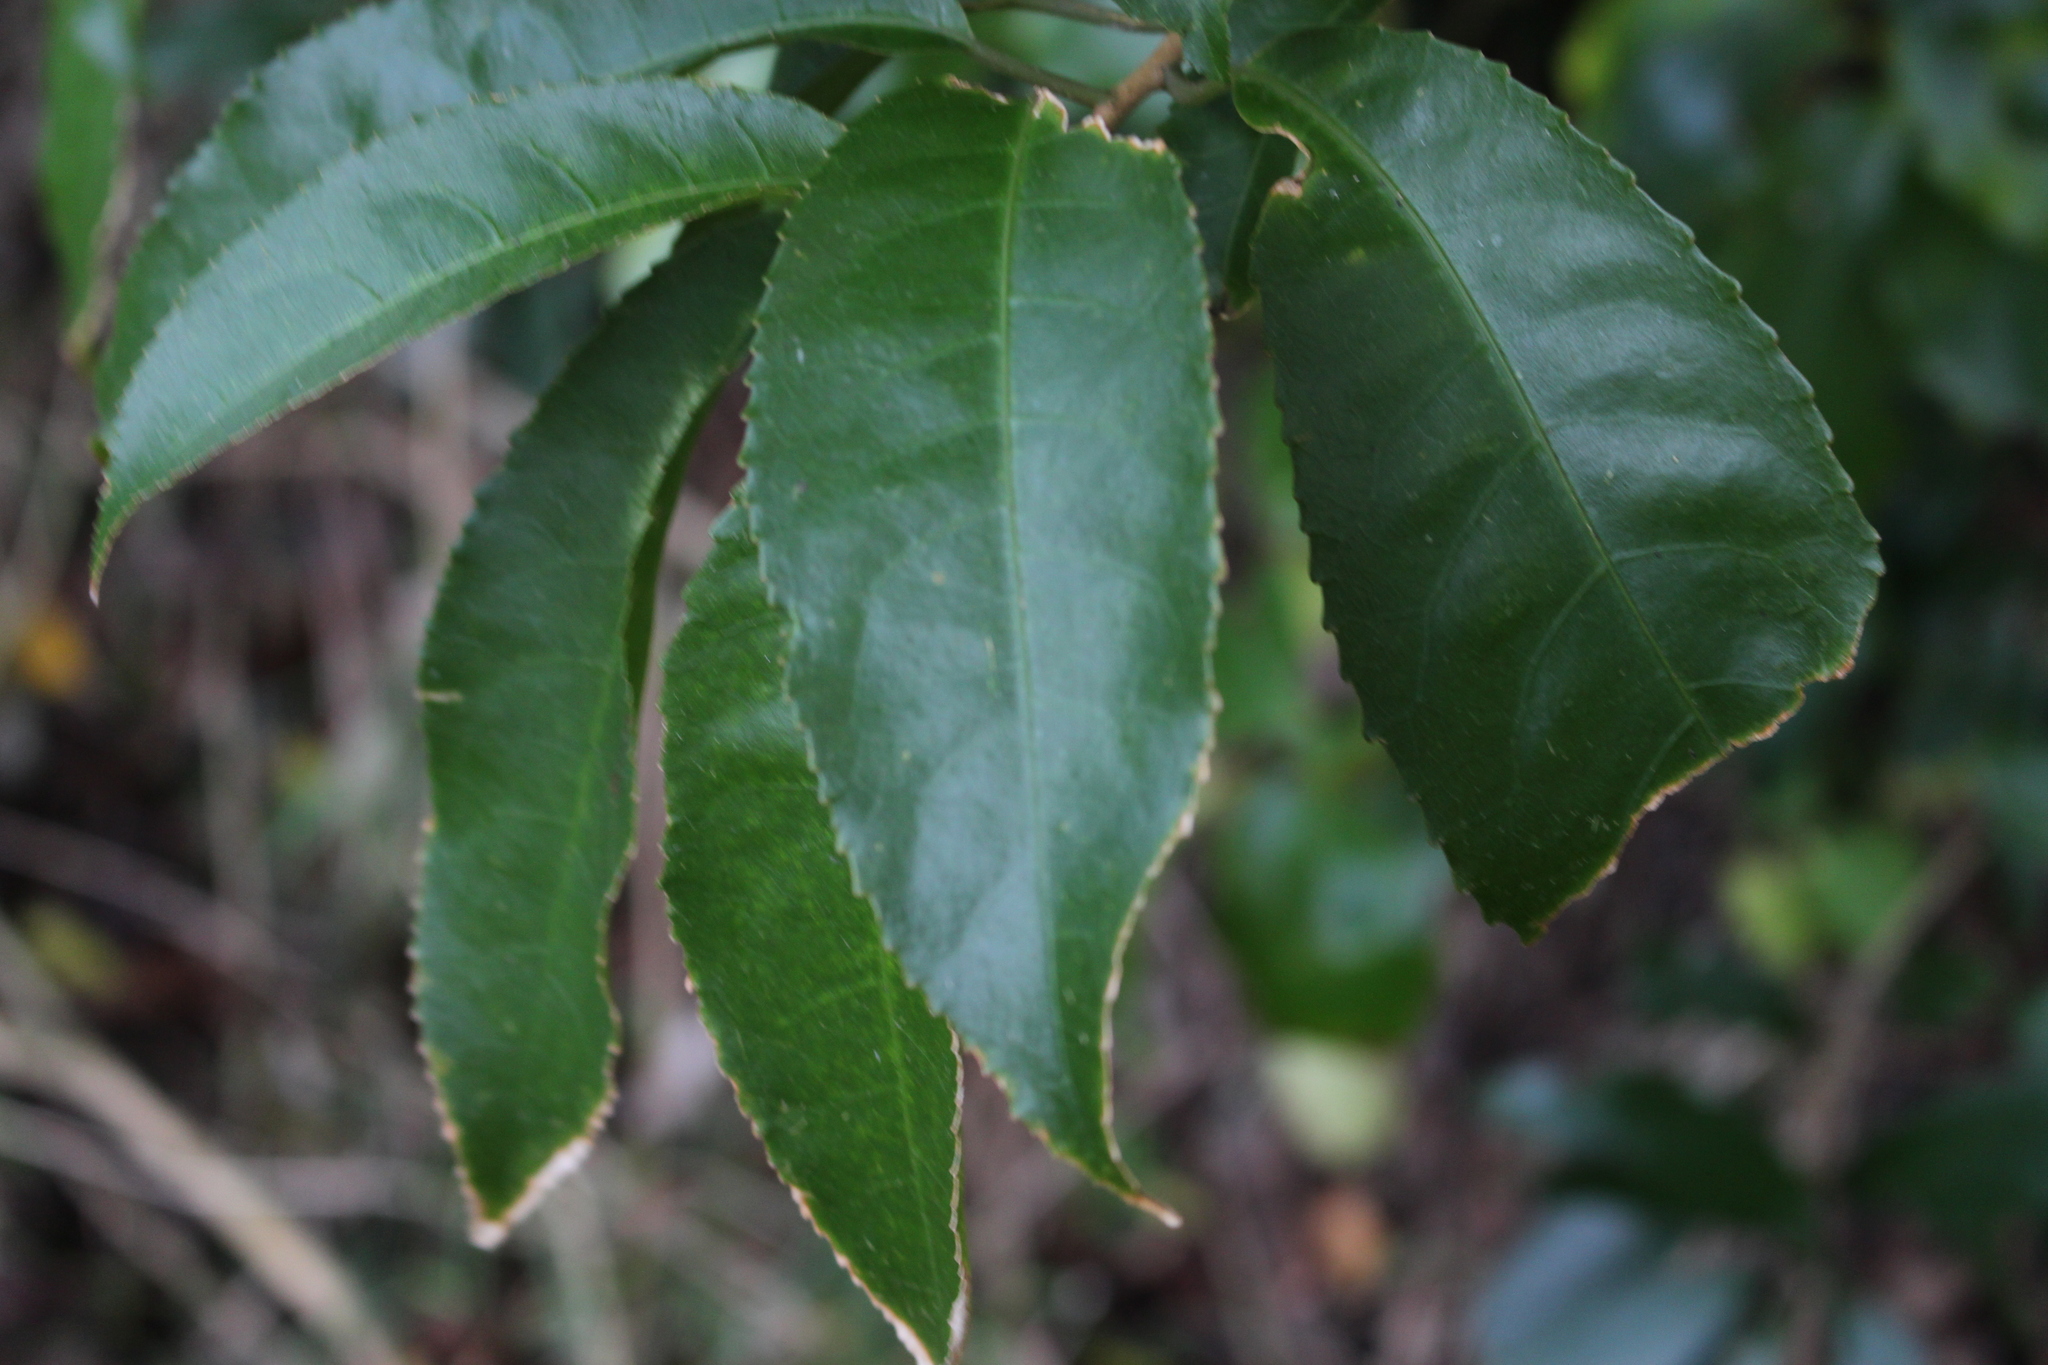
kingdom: Plantae
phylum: Tracheophyta
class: Magnoliopsida
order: Malpighiales
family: Violaceae
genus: Melicytus
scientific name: Melicytus ramiflorus
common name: Mahoe
